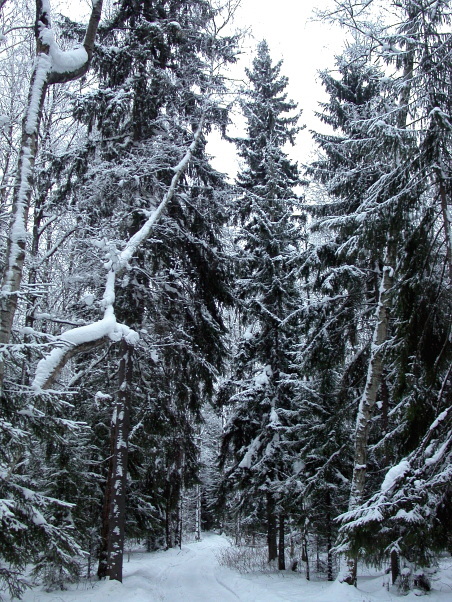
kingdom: Plantae
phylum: Tracheophyta
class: Pinopsida
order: Pinales
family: Pinaceae
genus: Picea
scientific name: Picea abies
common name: Norway spruce
